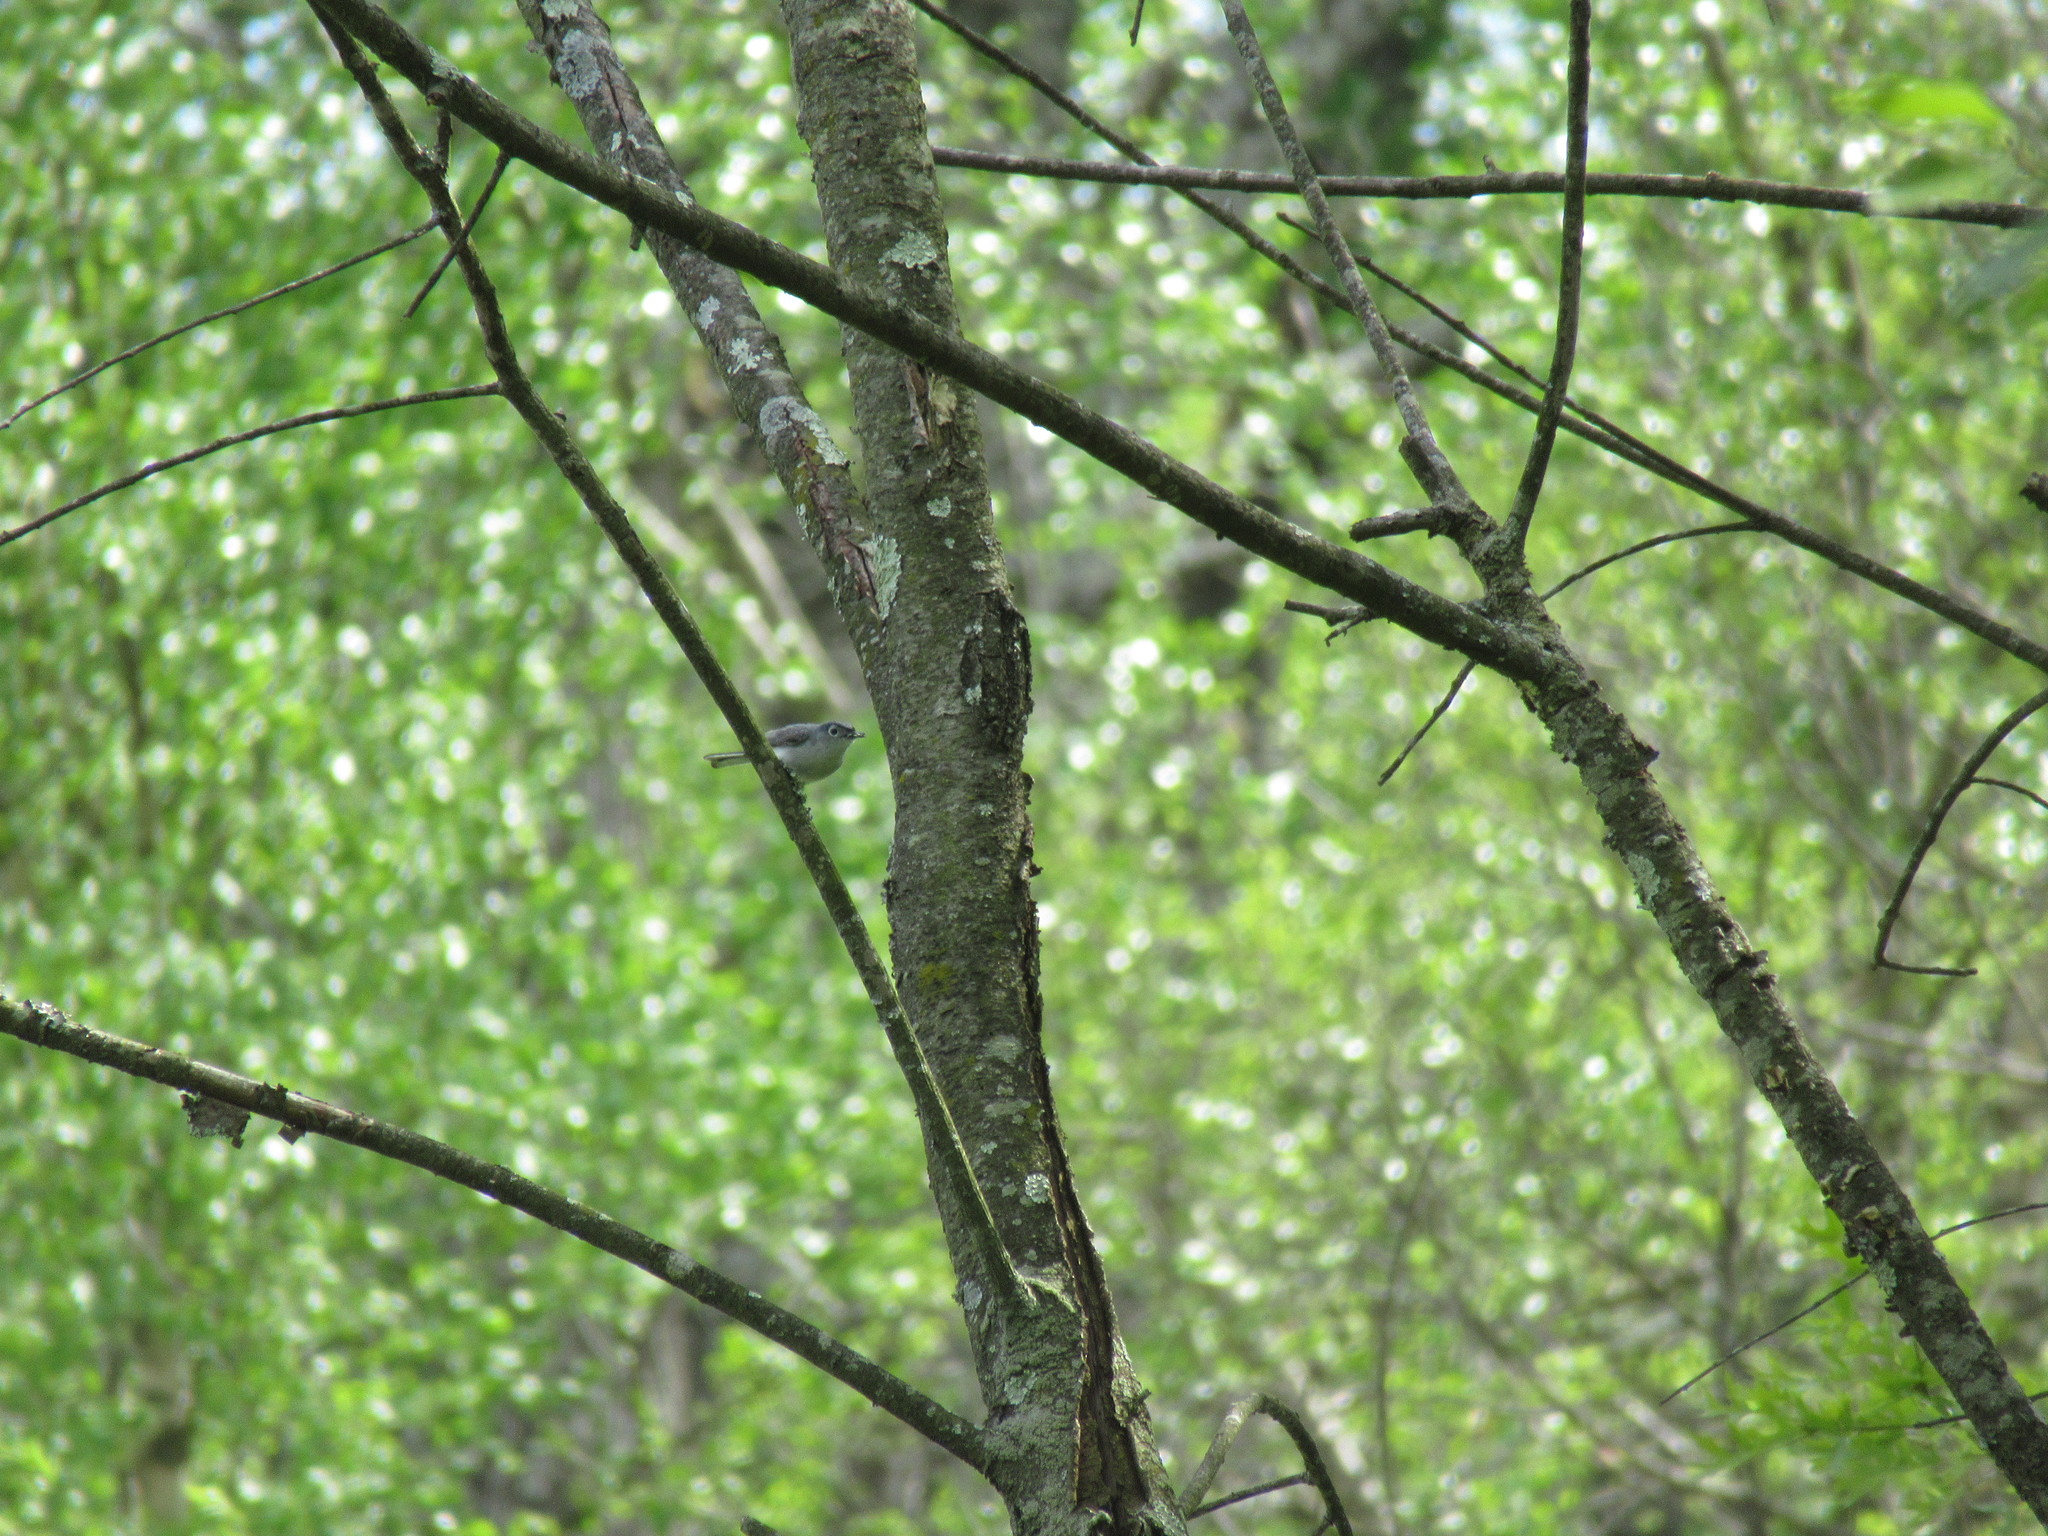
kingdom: Animalia
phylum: Chordata
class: Aves
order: Passeriformes
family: Polioptilidae
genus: Polioptila
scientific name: Polioptila caerulea
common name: Blue-gray gnatcatcher
